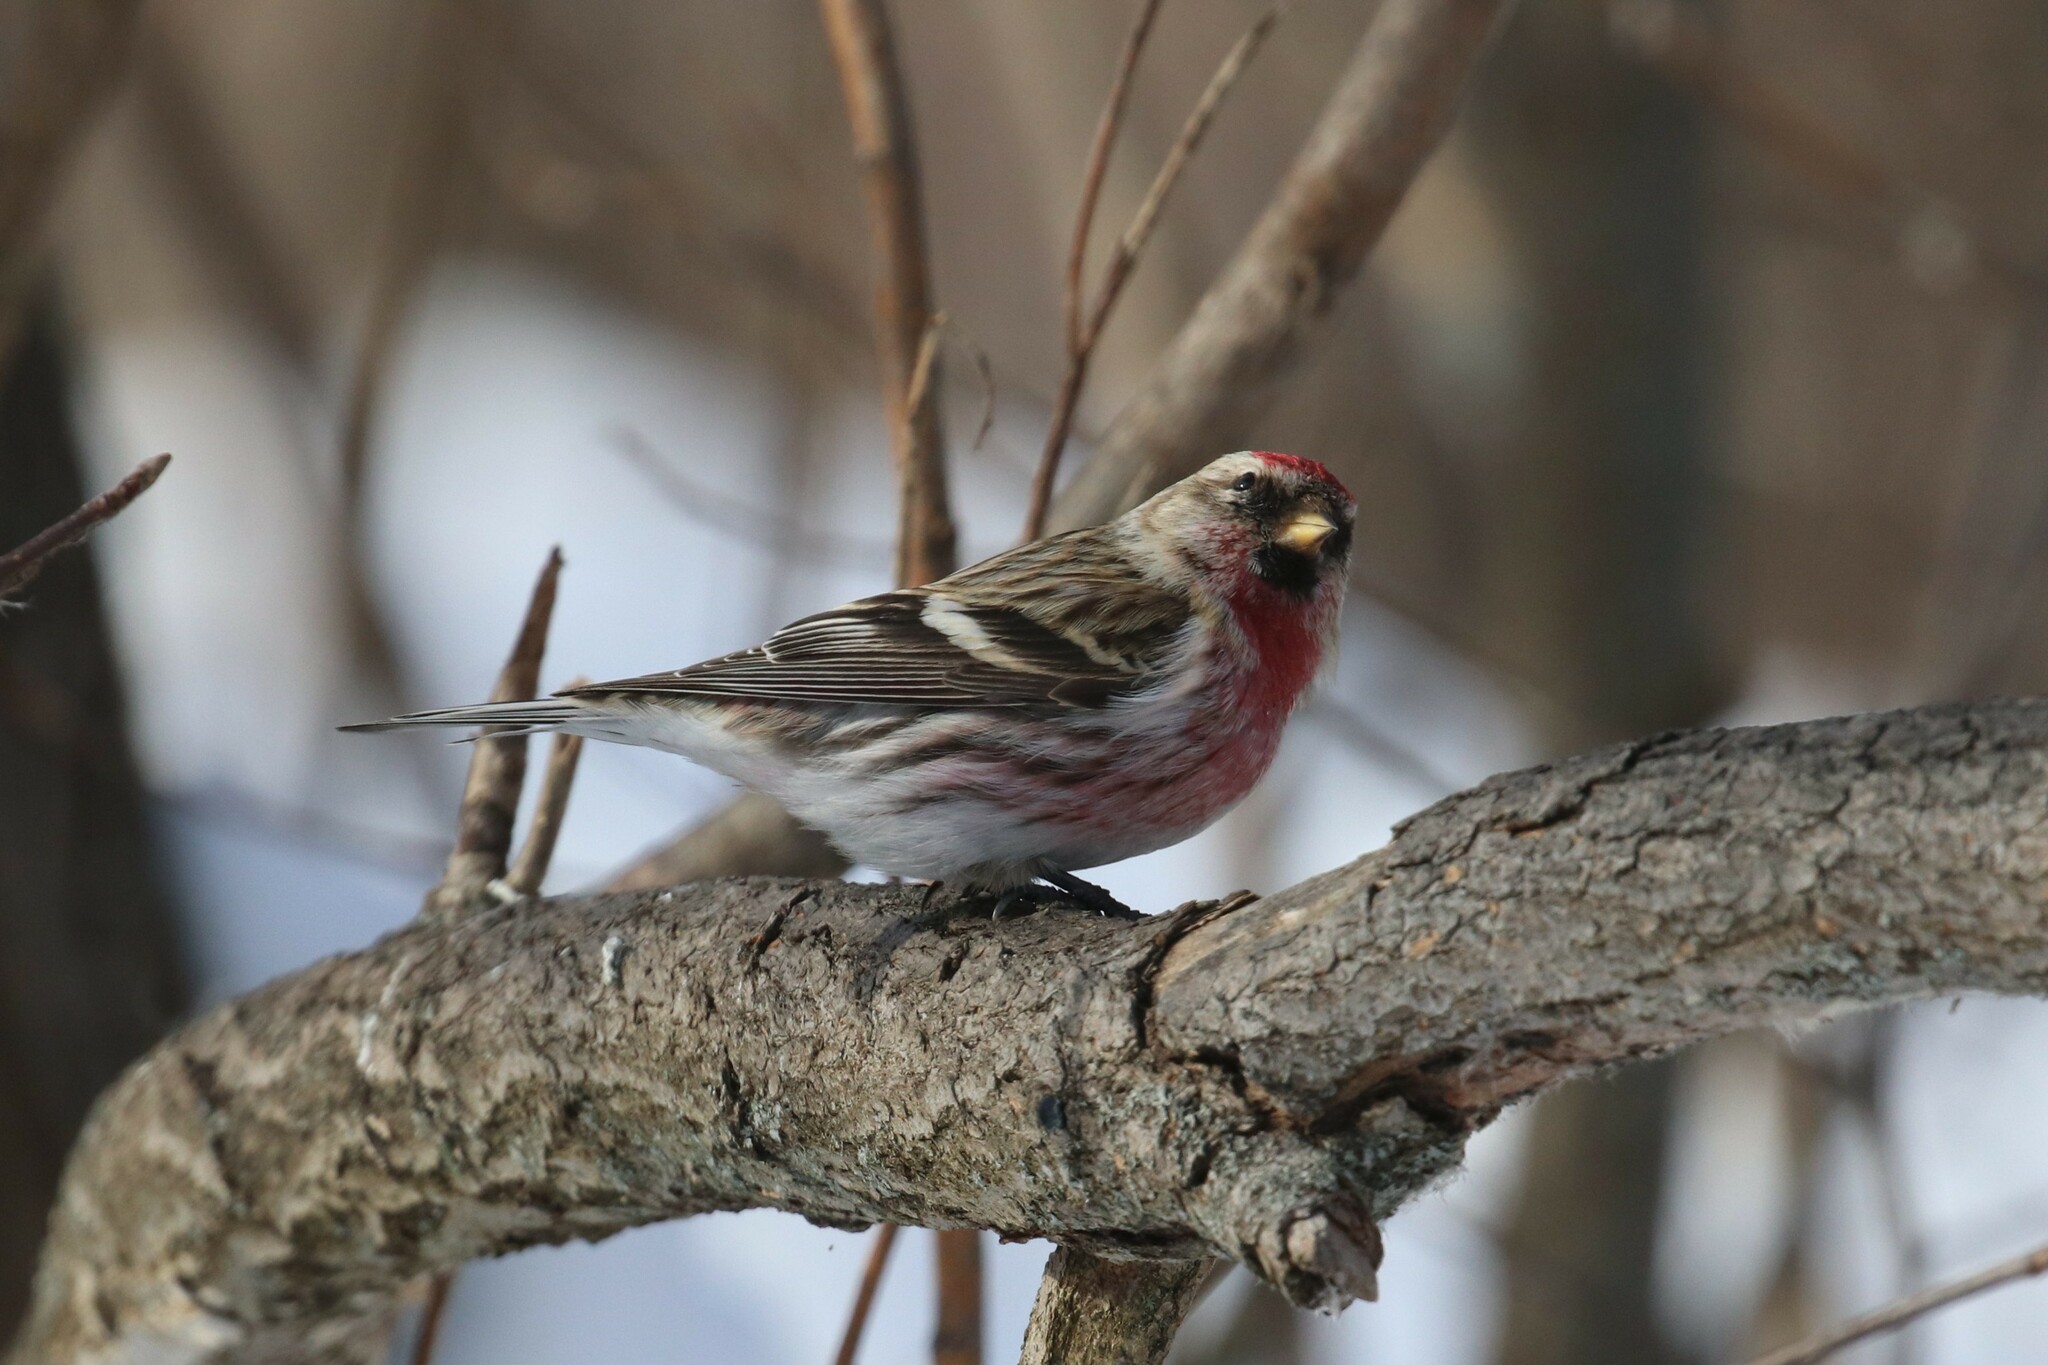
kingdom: Animalia
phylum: Chordata
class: Aves
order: Passeriformes
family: Fringillidae
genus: Acanthis
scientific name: Acanthis flammea
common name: Common redpoll
